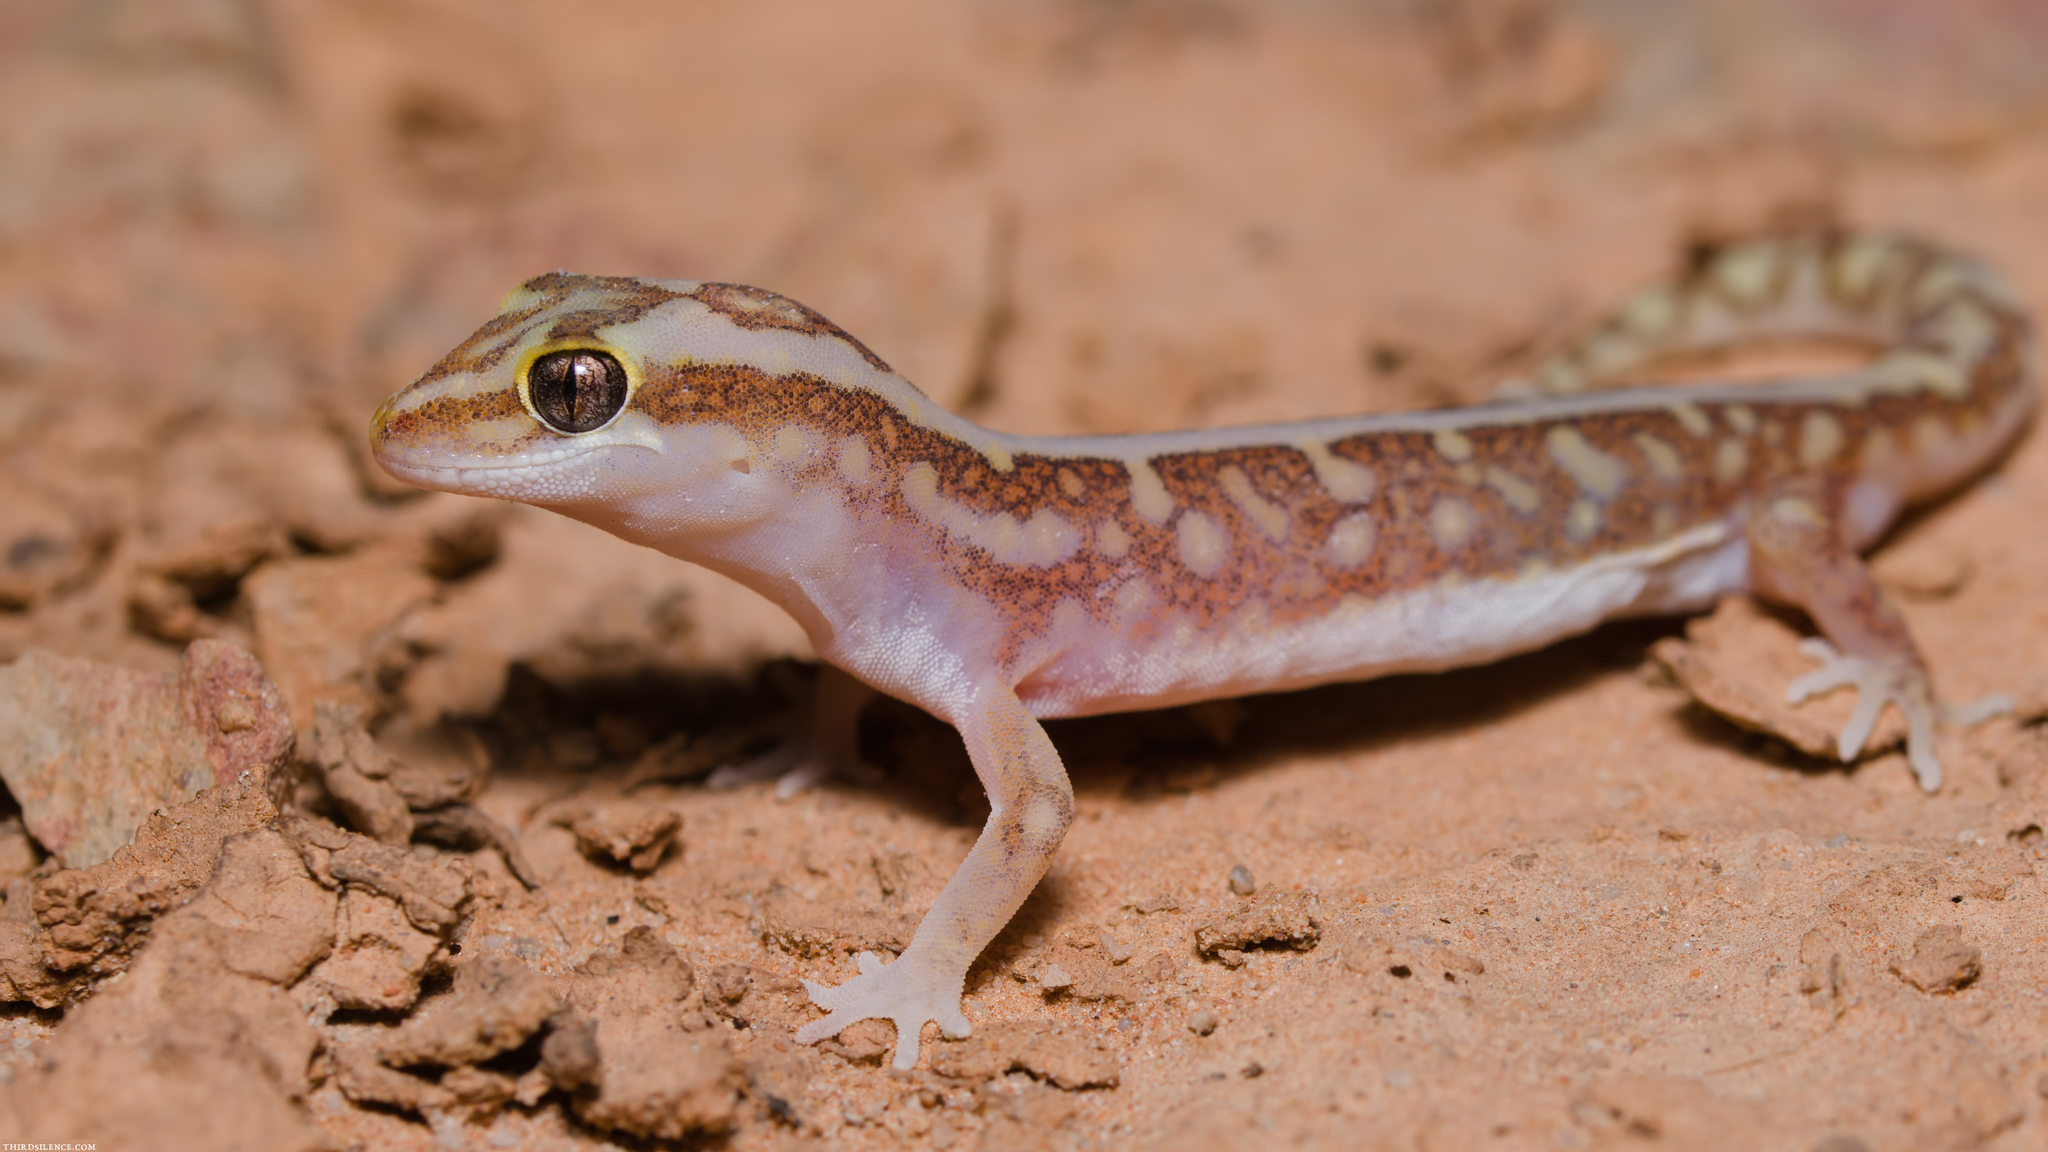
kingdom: Animalia
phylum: Chordata
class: Squamata
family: Diplodactylidae
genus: Lucasium
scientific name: Lucasium stenodactylum
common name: Crowned gecko
